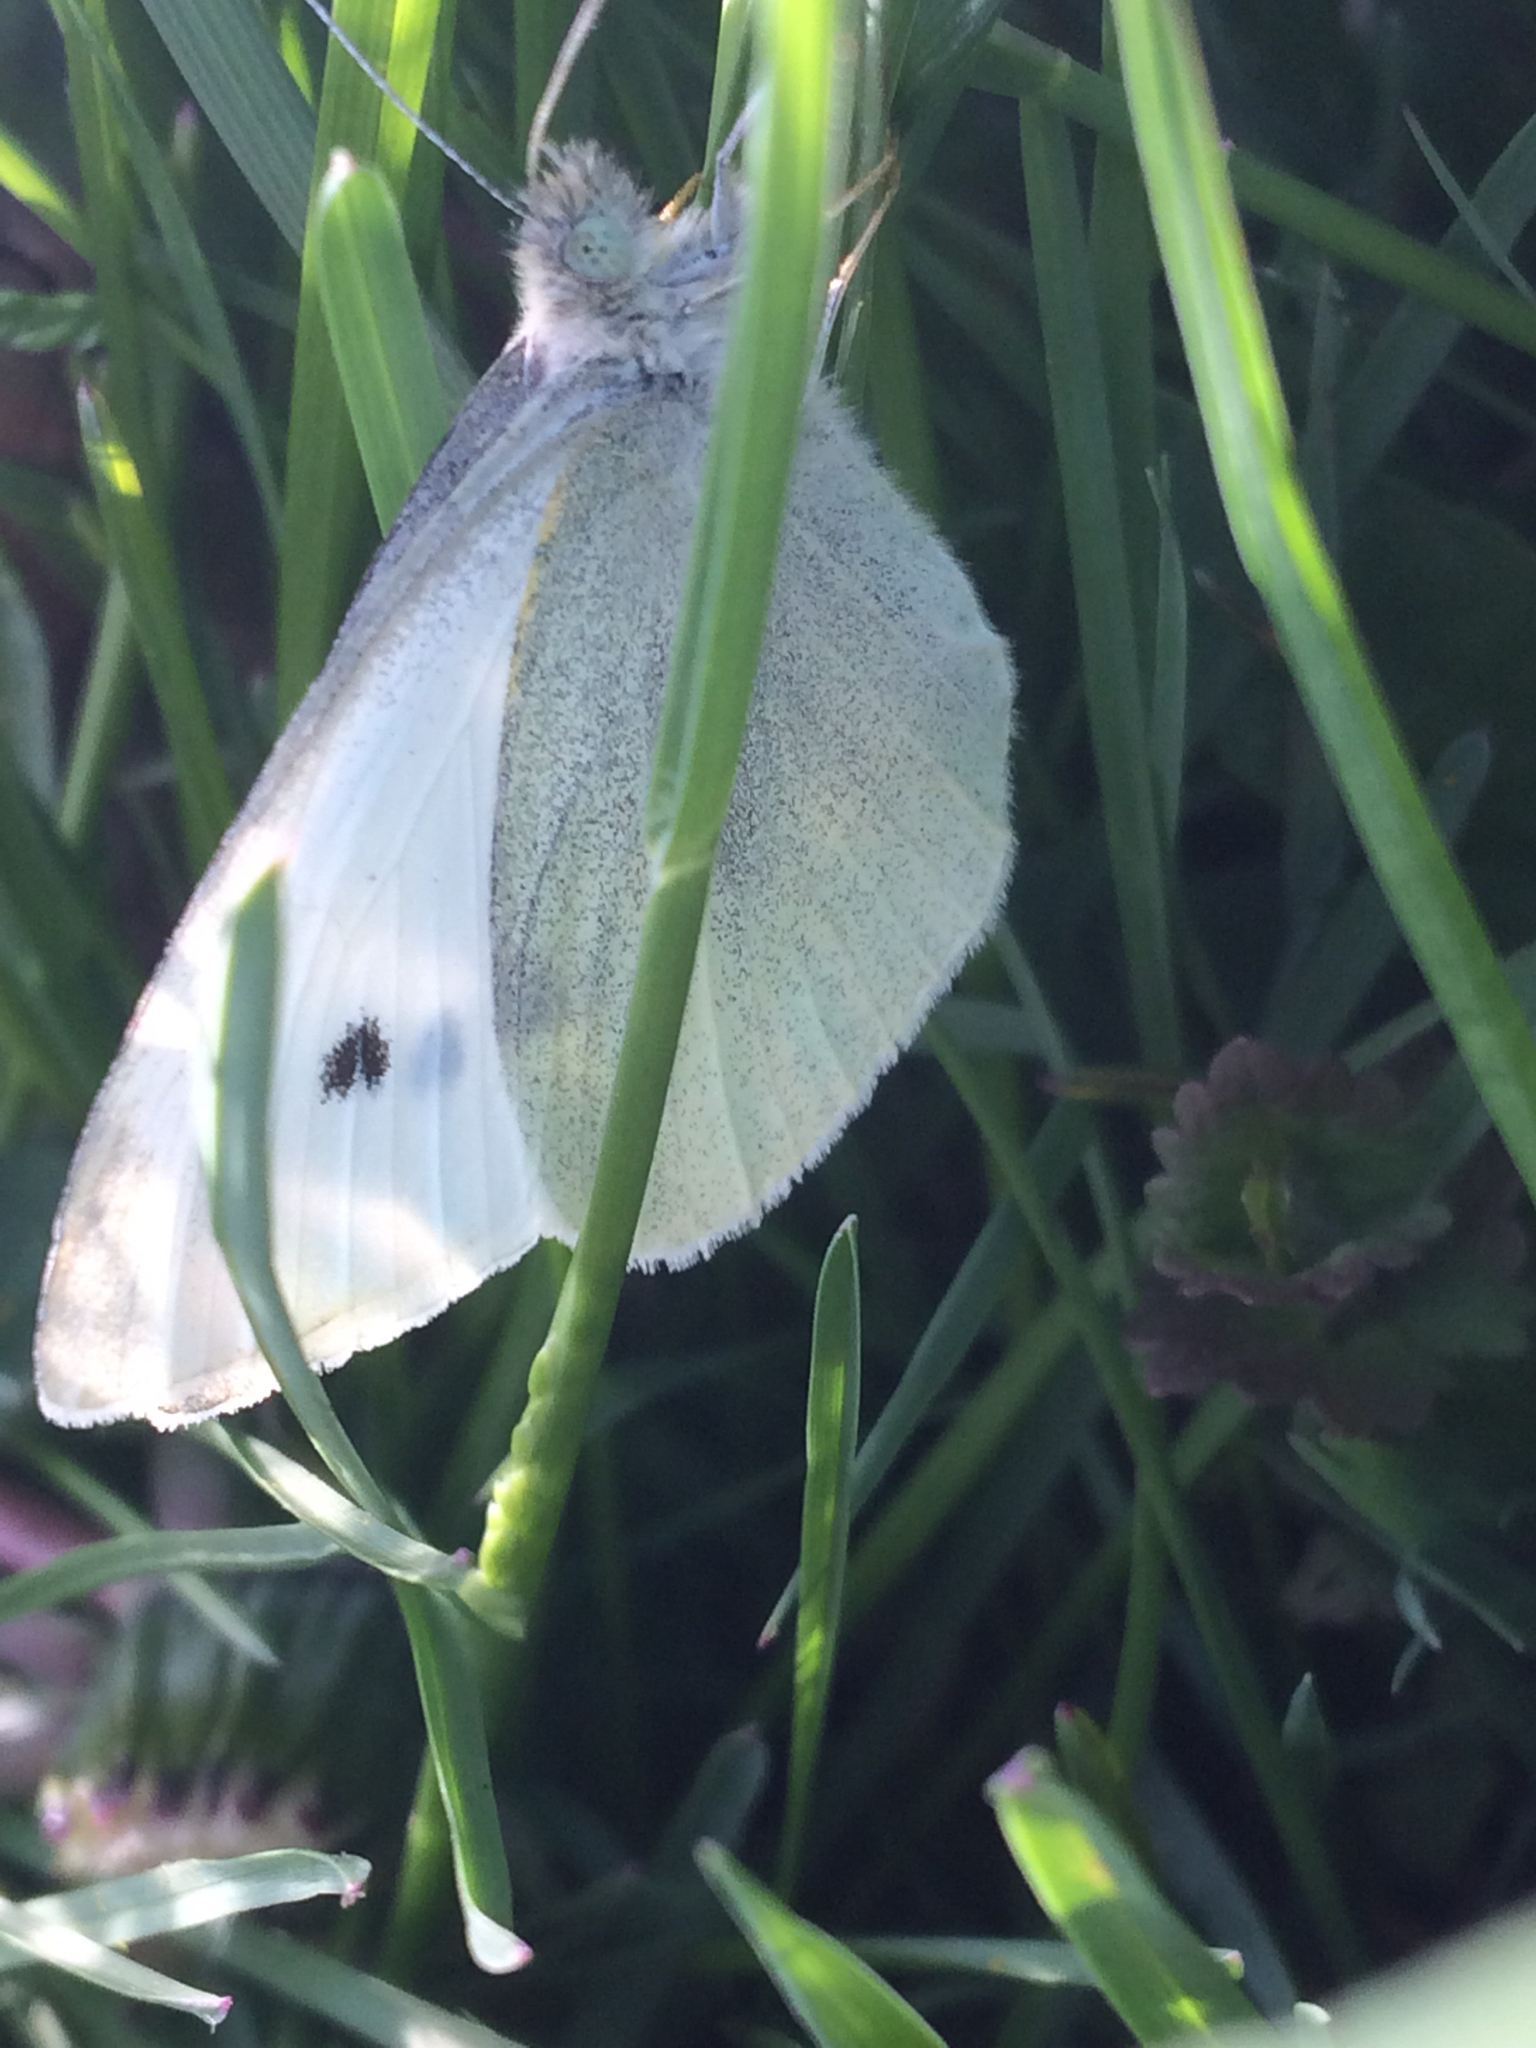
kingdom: Animalia
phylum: Arthropoda
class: Insecta
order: Lepidoptera
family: Pieridae
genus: Pieris
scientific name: Pieris rapae
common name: Small white
